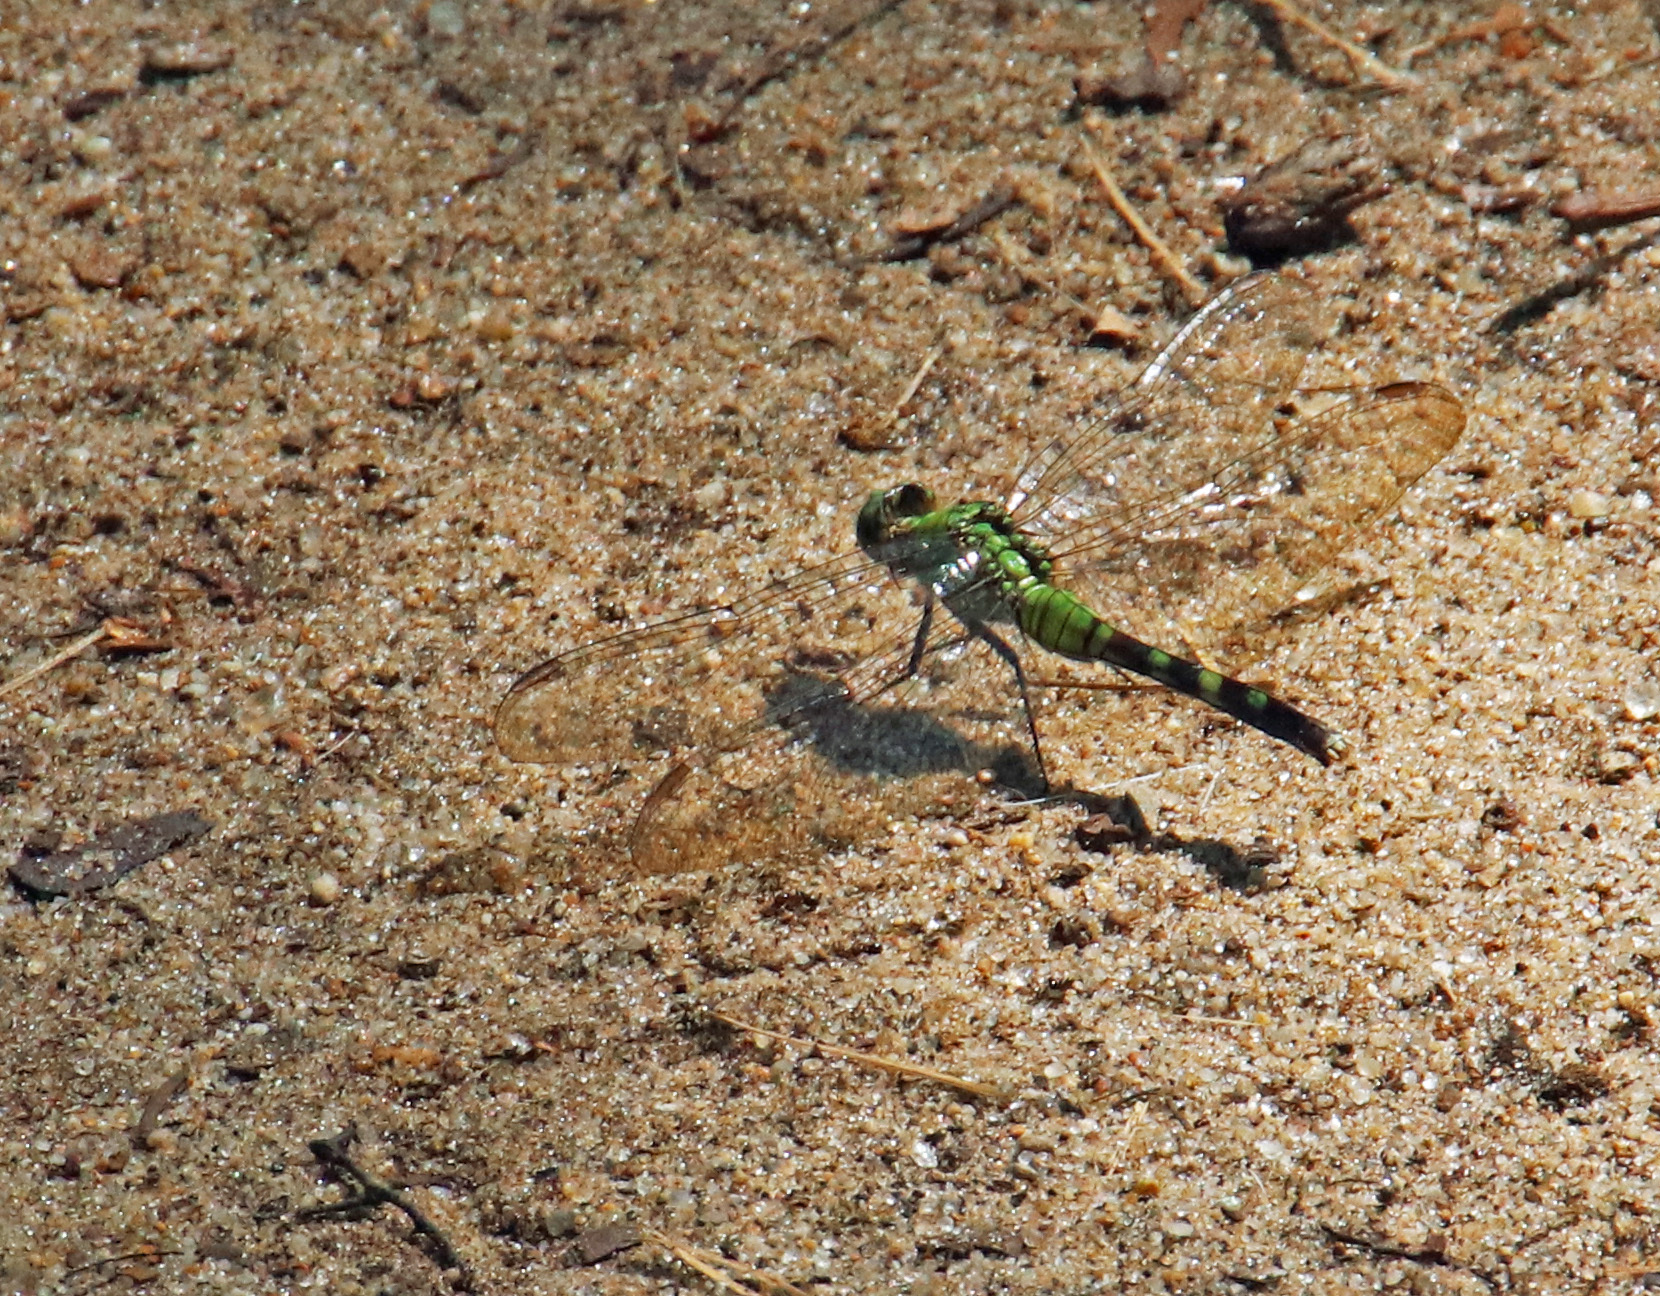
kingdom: Animalia
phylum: Arthropoda
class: Insecta
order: Odonata
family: Libellulidae
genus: Erythemis
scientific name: Erythemis simplicicollis
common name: Eastern pondhawk
